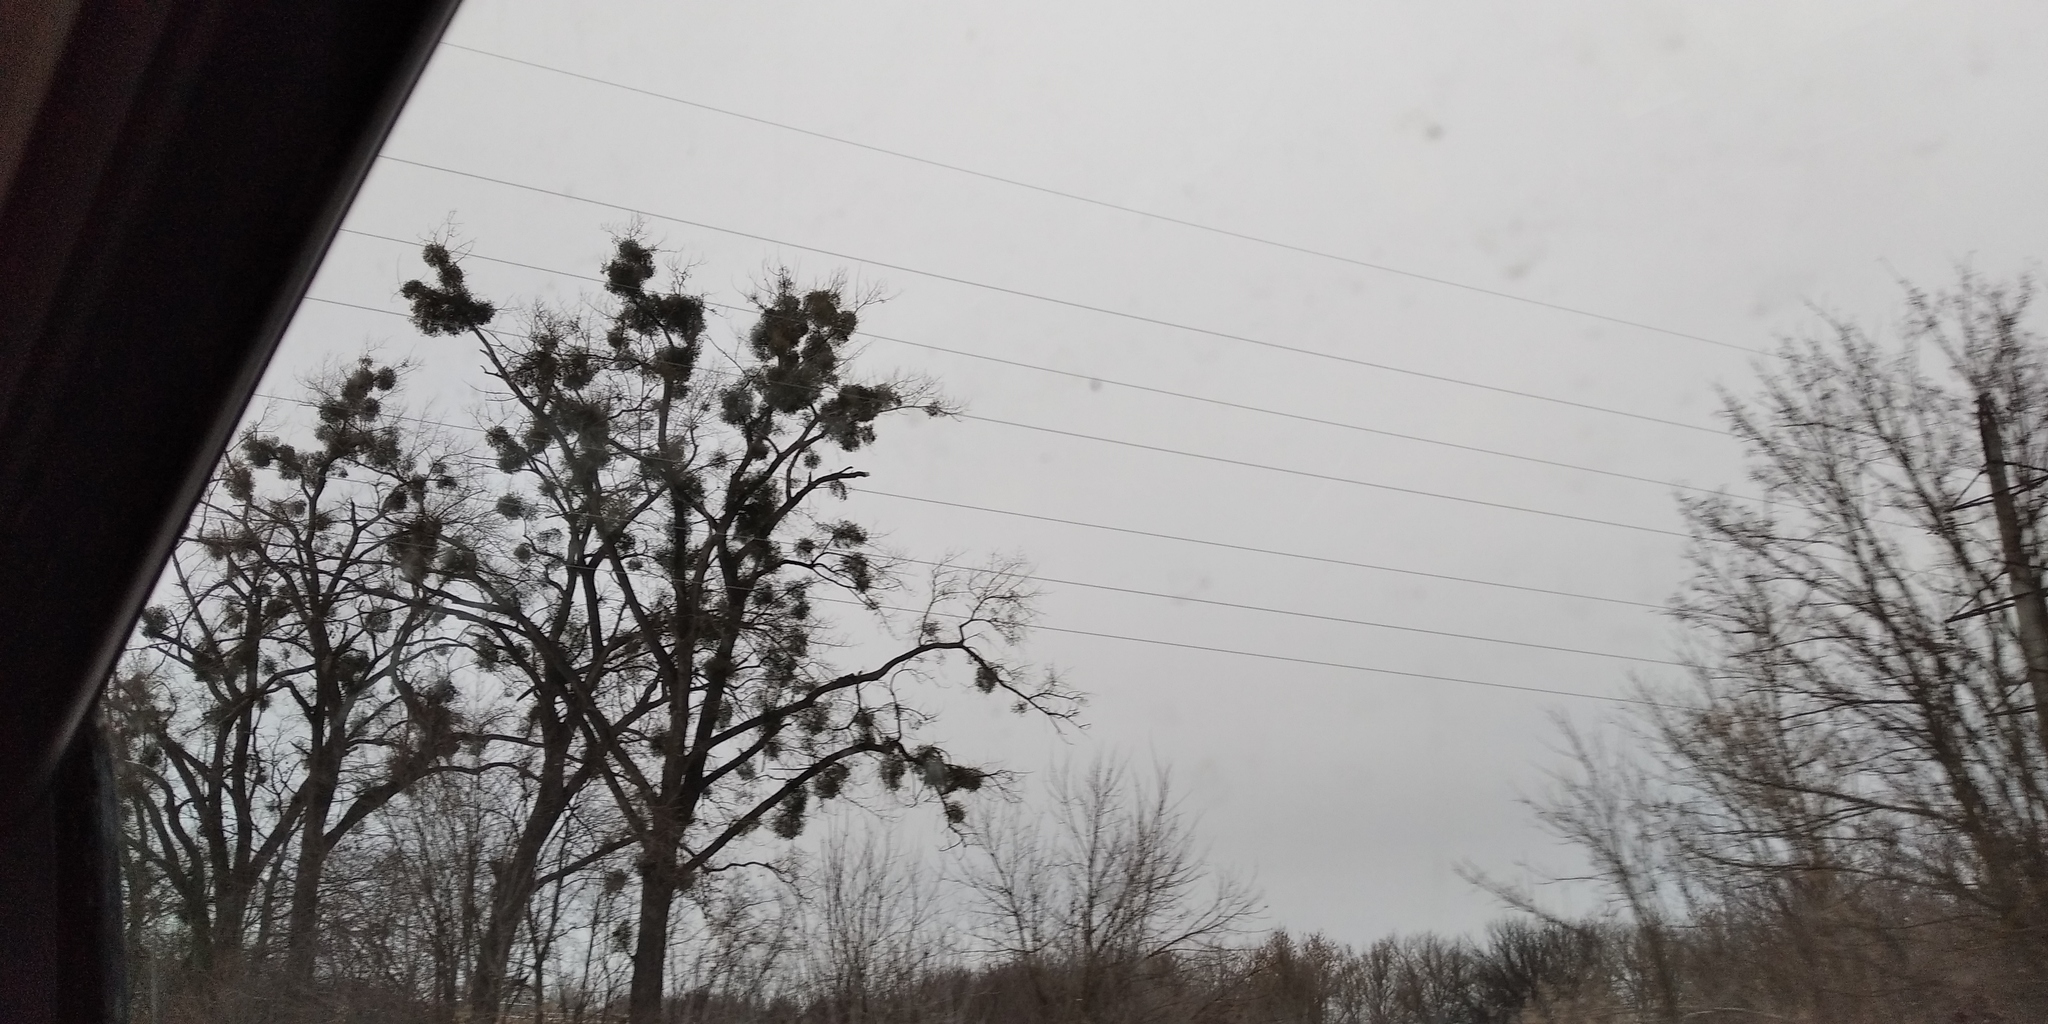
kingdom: Plantae
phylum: Tracheophyta
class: Magnoliopsida
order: Santalales
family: Viscaceae
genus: Viscum
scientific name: Viscum album
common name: Mistletoe
